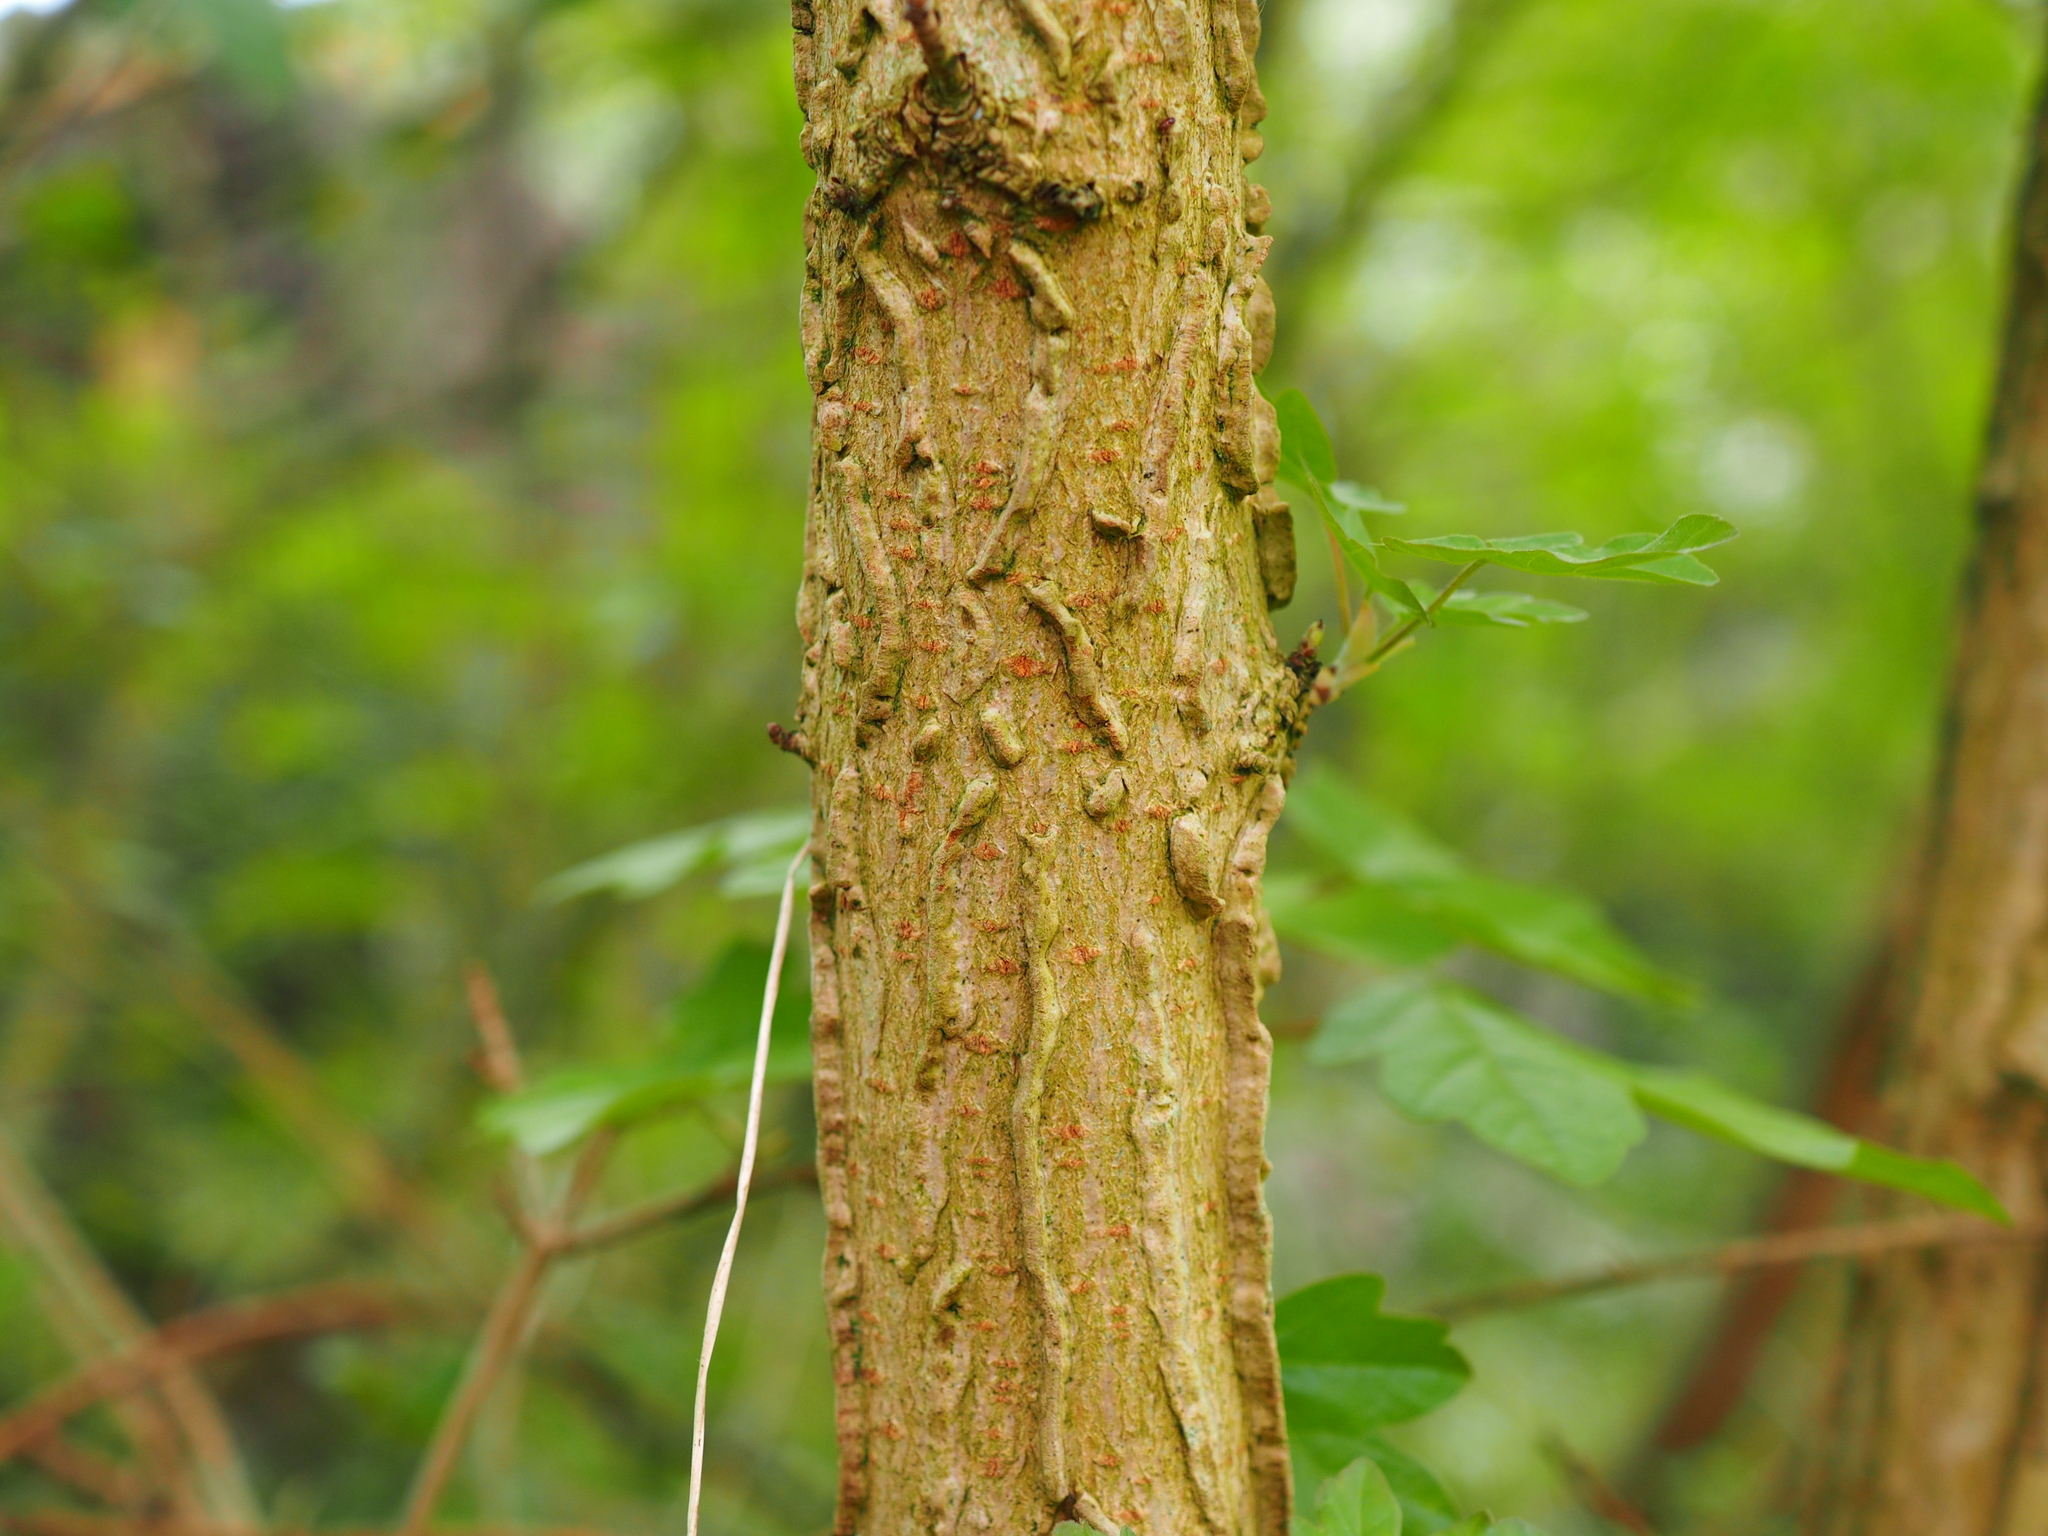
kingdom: Plantae
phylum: Tracheophyta
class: Magnoliopsida
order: Sapindales
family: Sapindaceae
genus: Acer
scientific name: Acer campestre
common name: Field maple
